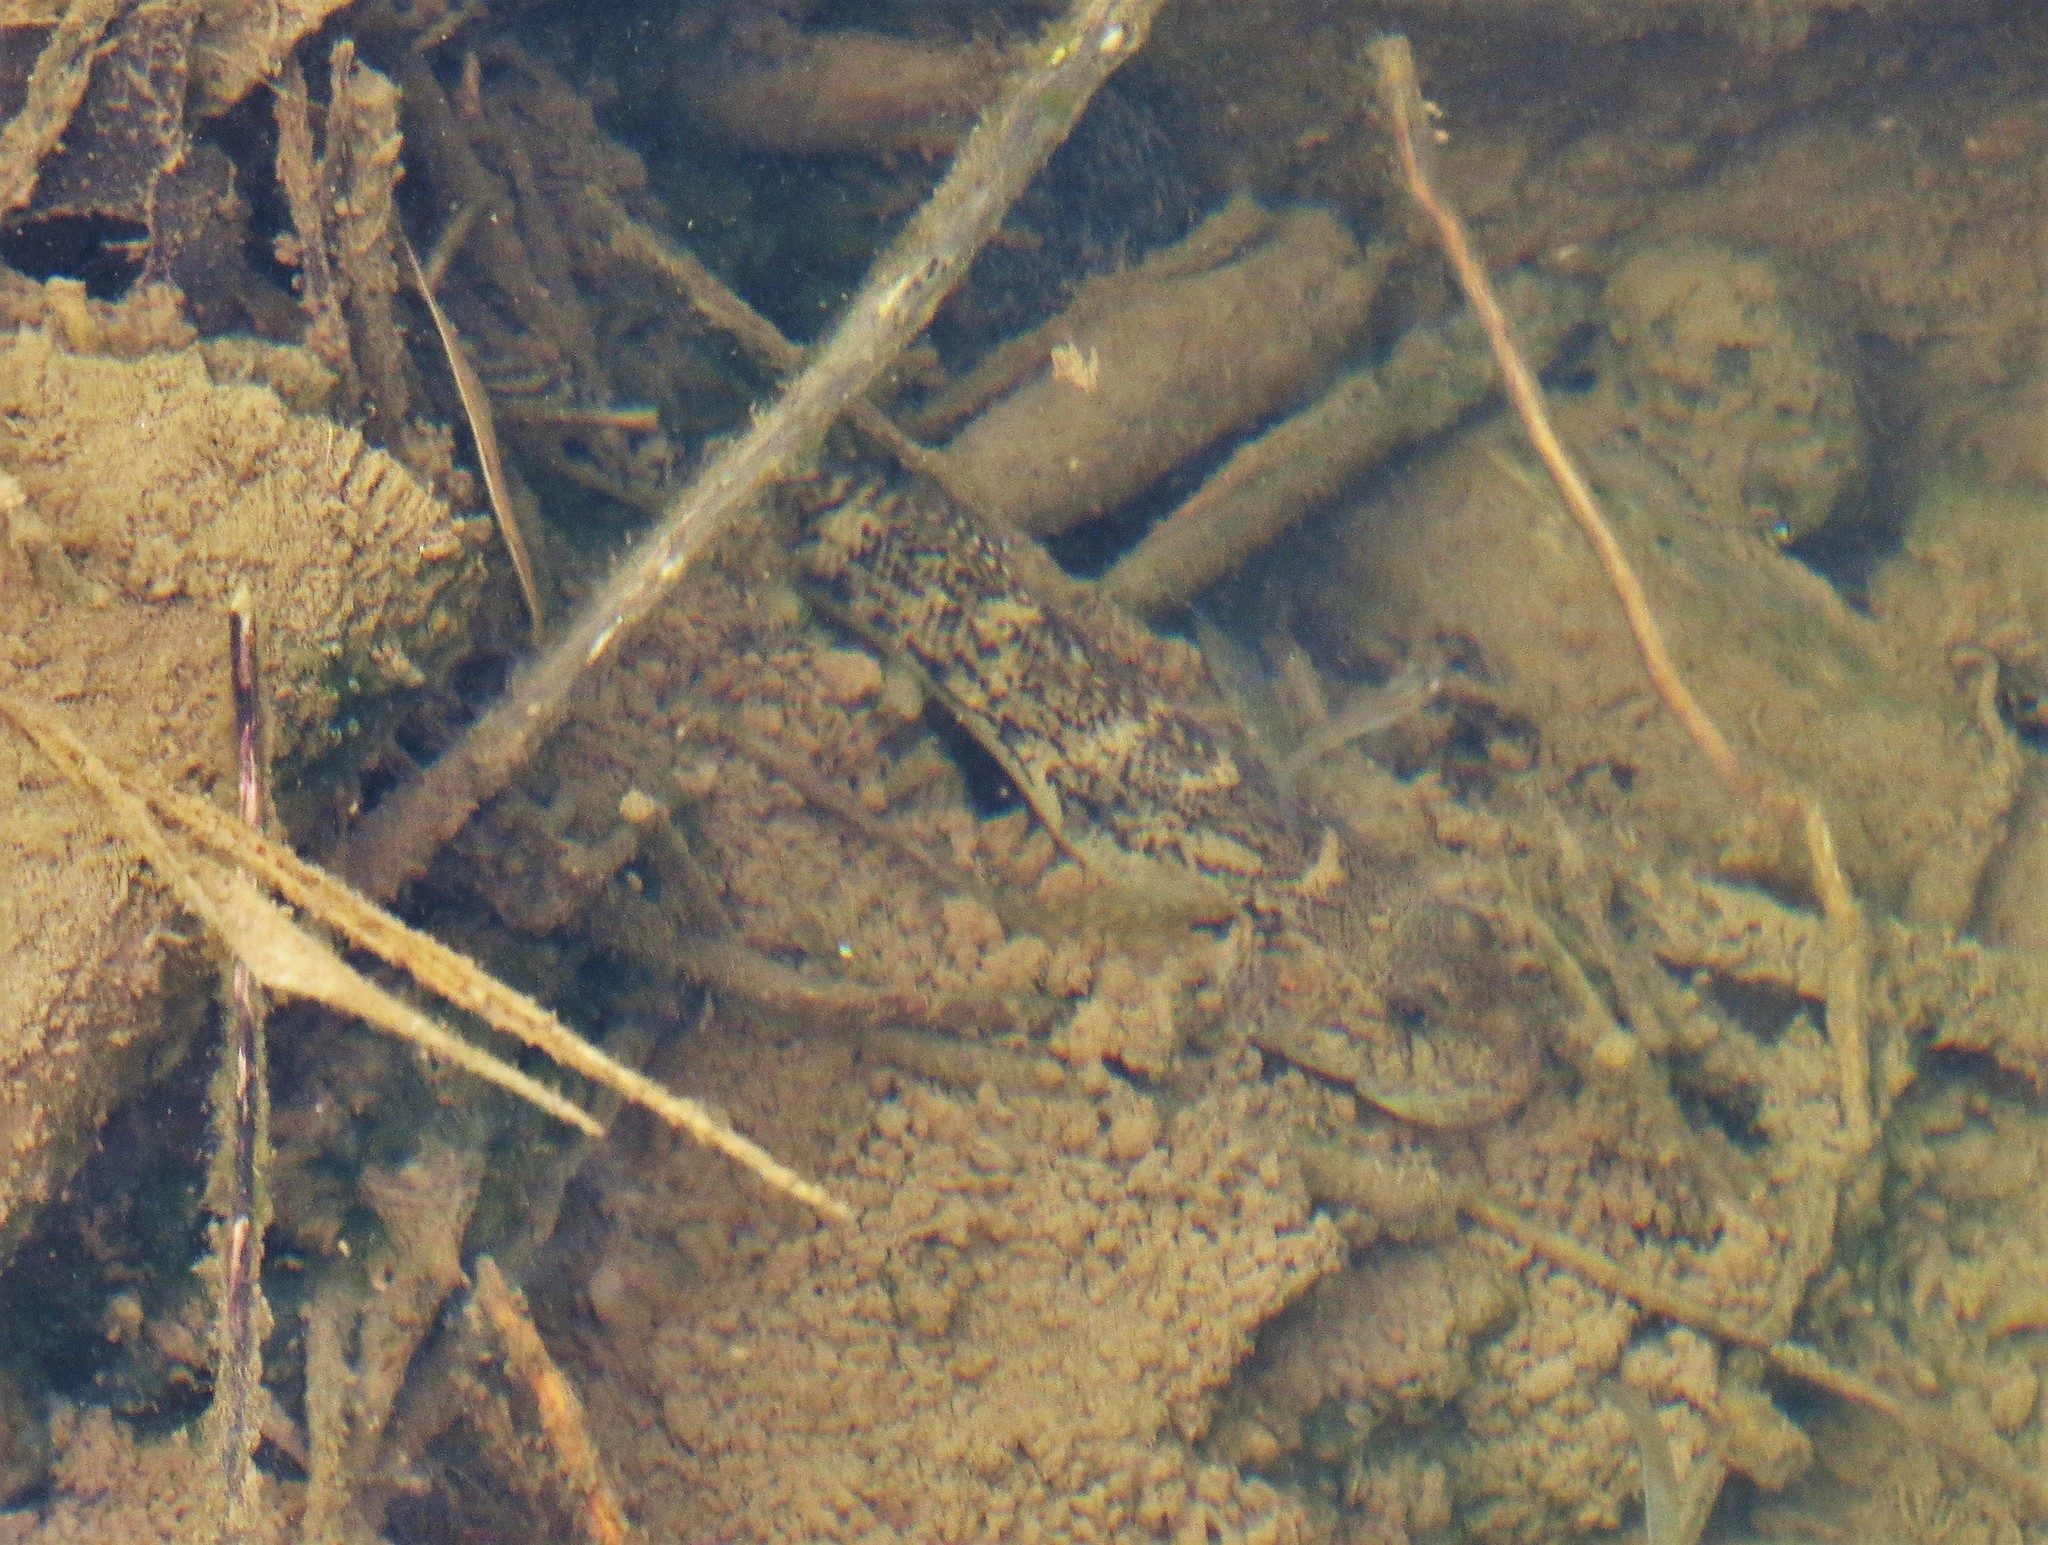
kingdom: Animalia
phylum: Chordata
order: Perciformes
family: Gobiidae
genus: Awaous
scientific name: Awaous stamineus
